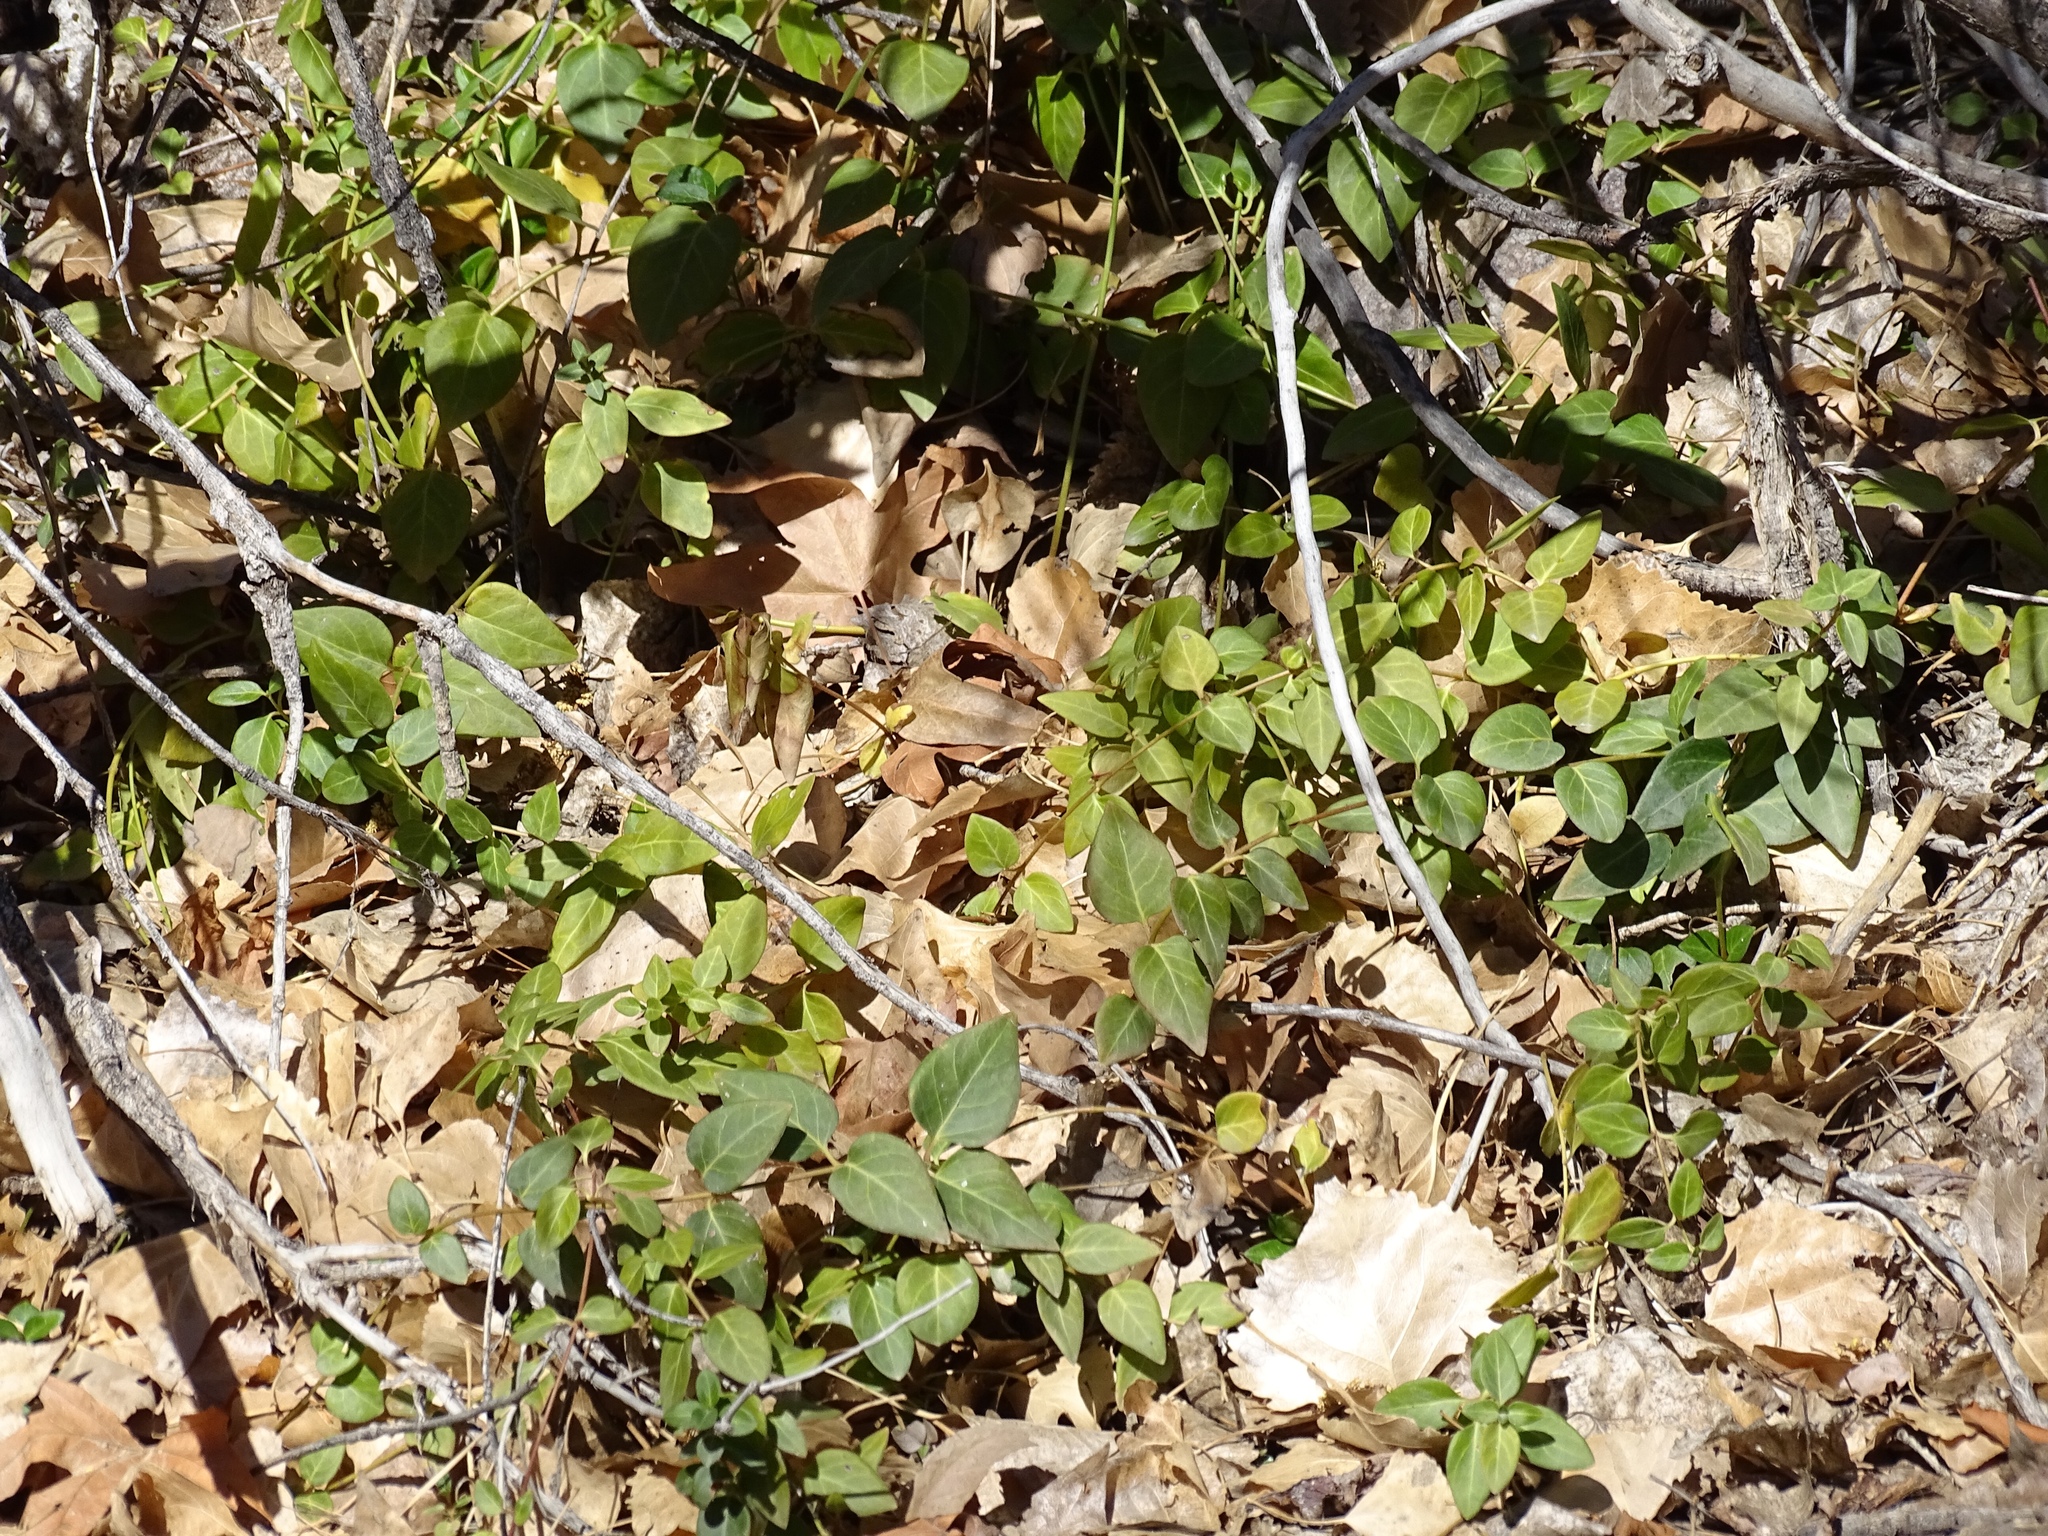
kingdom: Plantae
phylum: Tracheophyta
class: Magnoliopsida
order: Gentianales
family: Apocynaceae
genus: Vinca
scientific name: Vinca major
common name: Greater periwinkle
